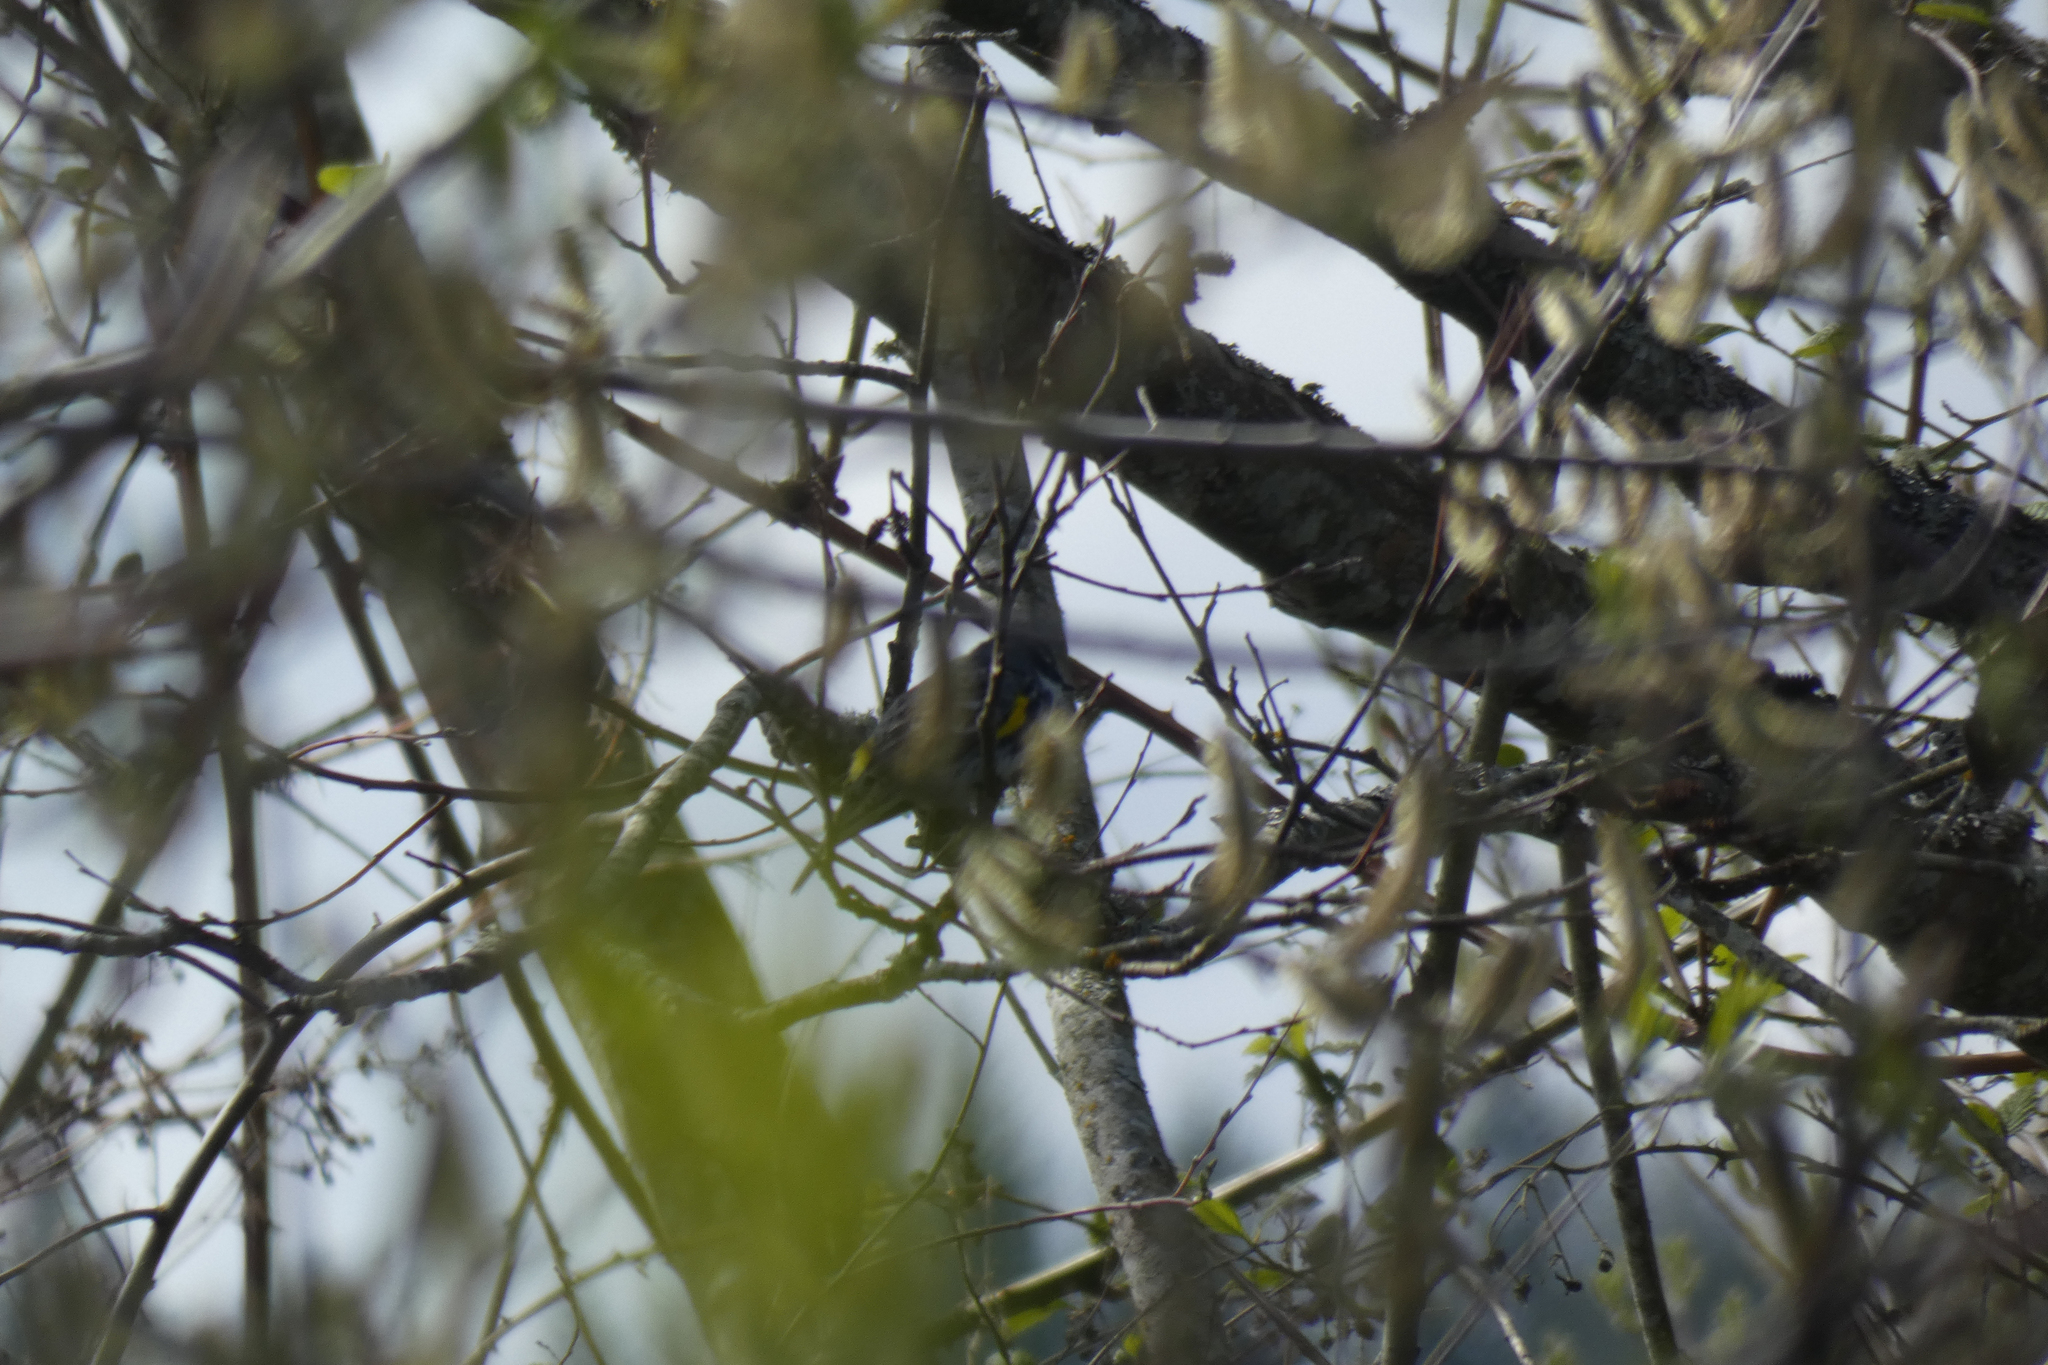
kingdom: Animalia
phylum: Chordata
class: Aves
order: Passeriformes
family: Parulidae
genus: Setophaga
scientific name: Setophaga coronata
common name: Myrtle warbler
